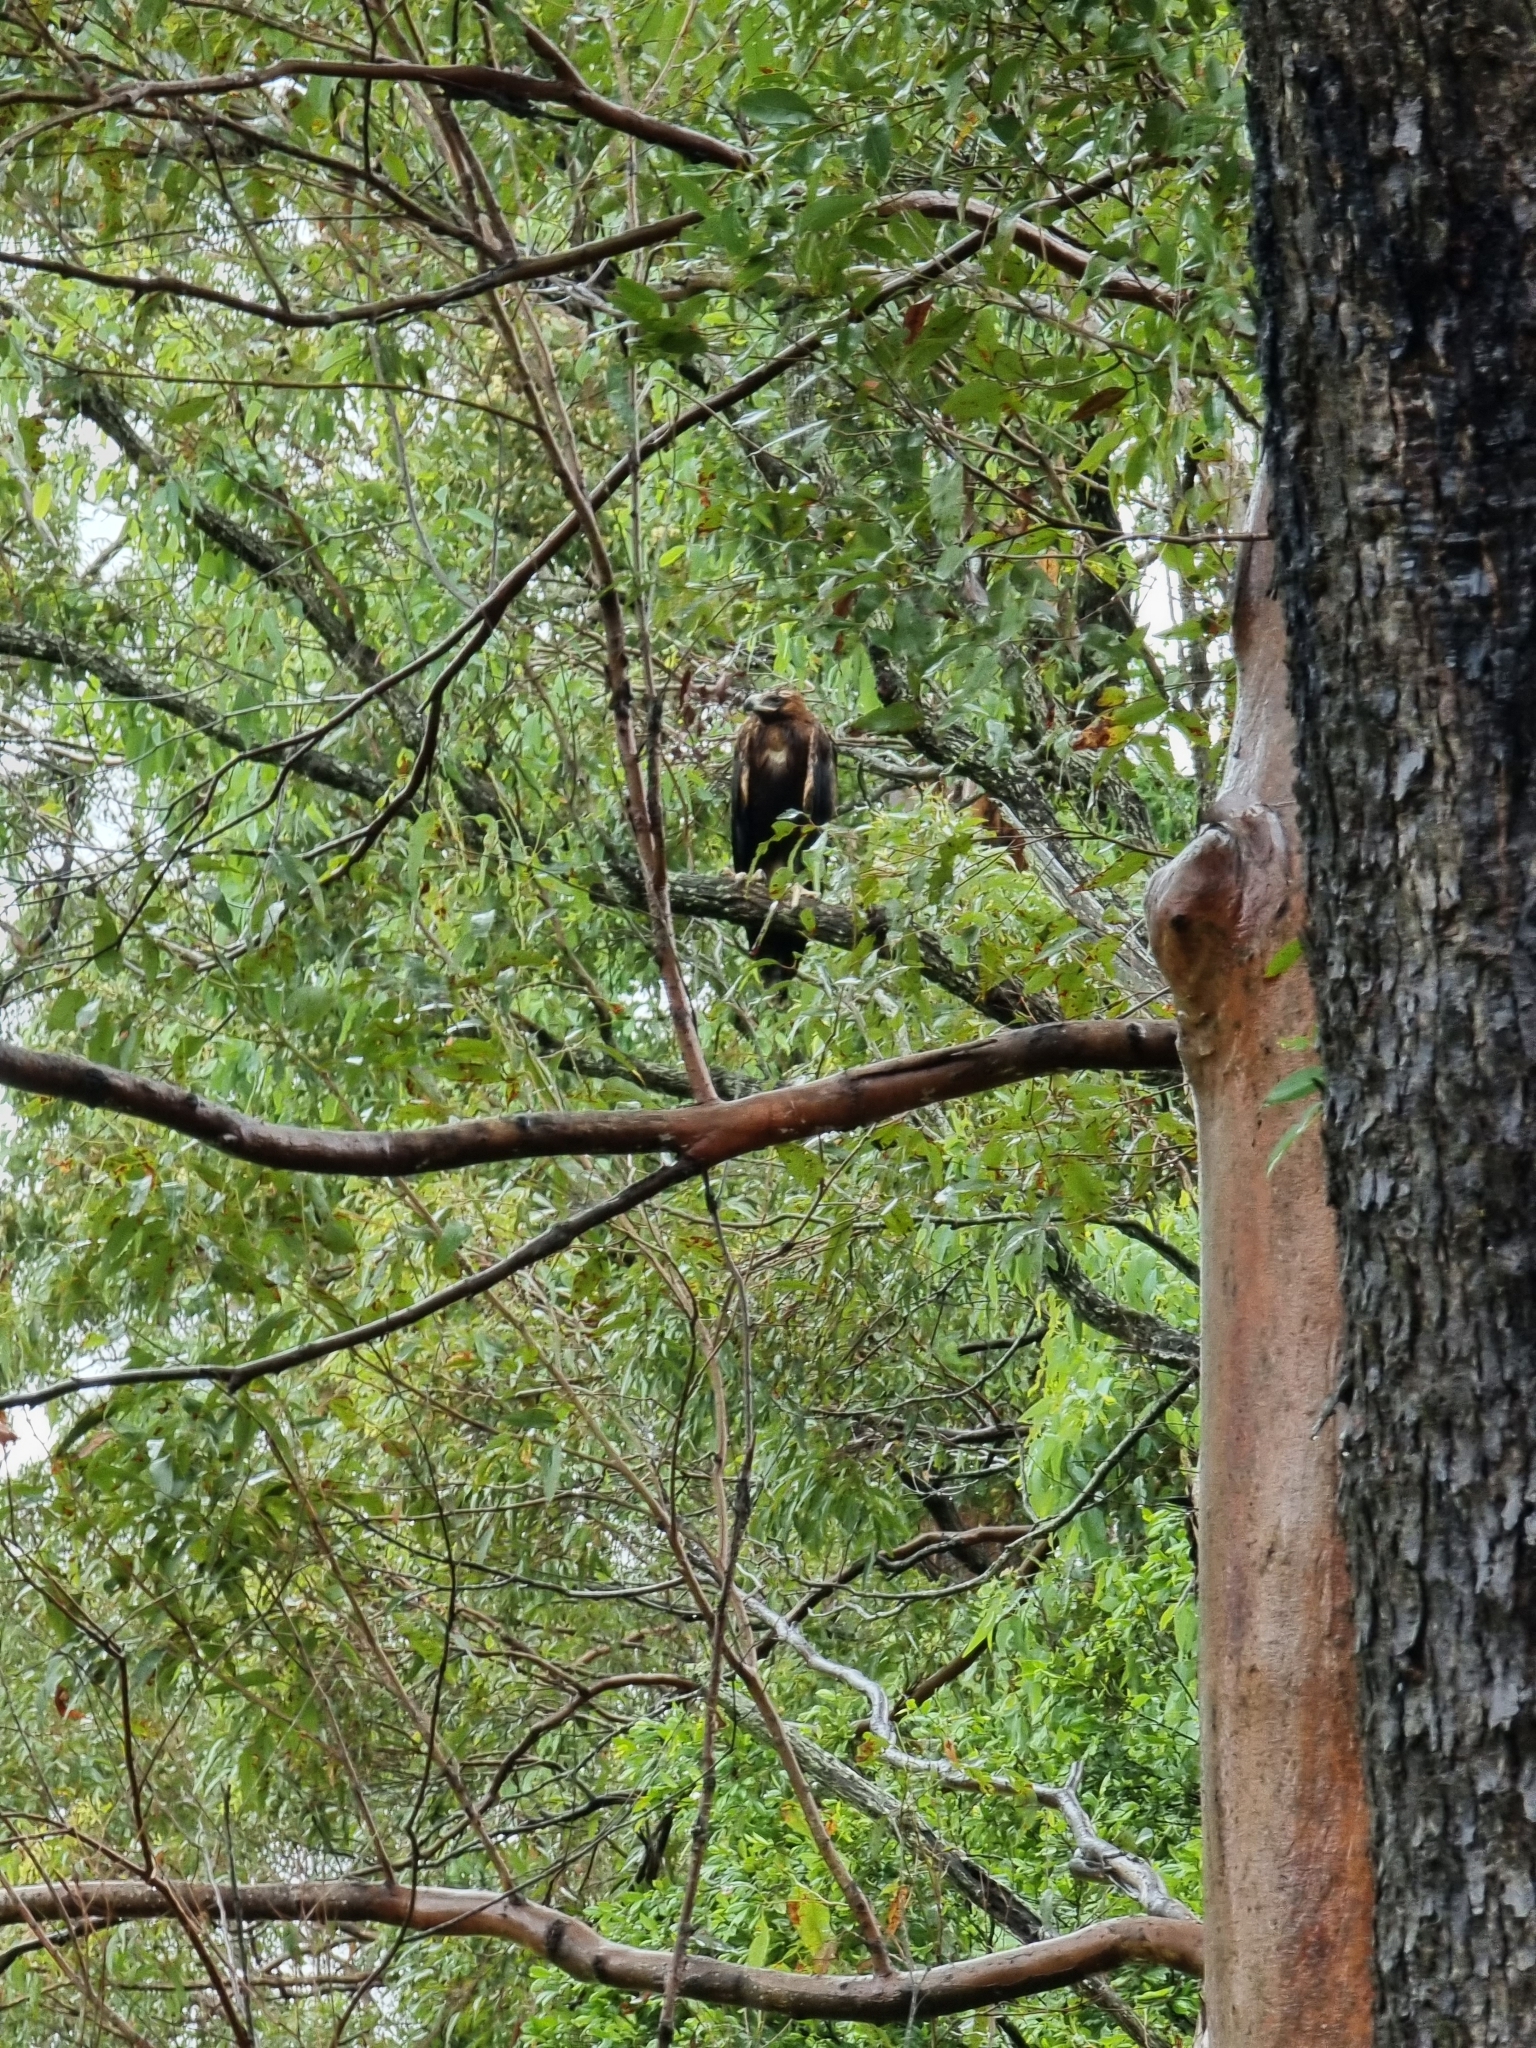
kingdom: Animalia
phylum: Chordata
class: Aves
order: Accipitriformes
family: Accipitridae
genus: Aquila
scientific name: Aquila audax
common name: Wedge-tailed eagle
